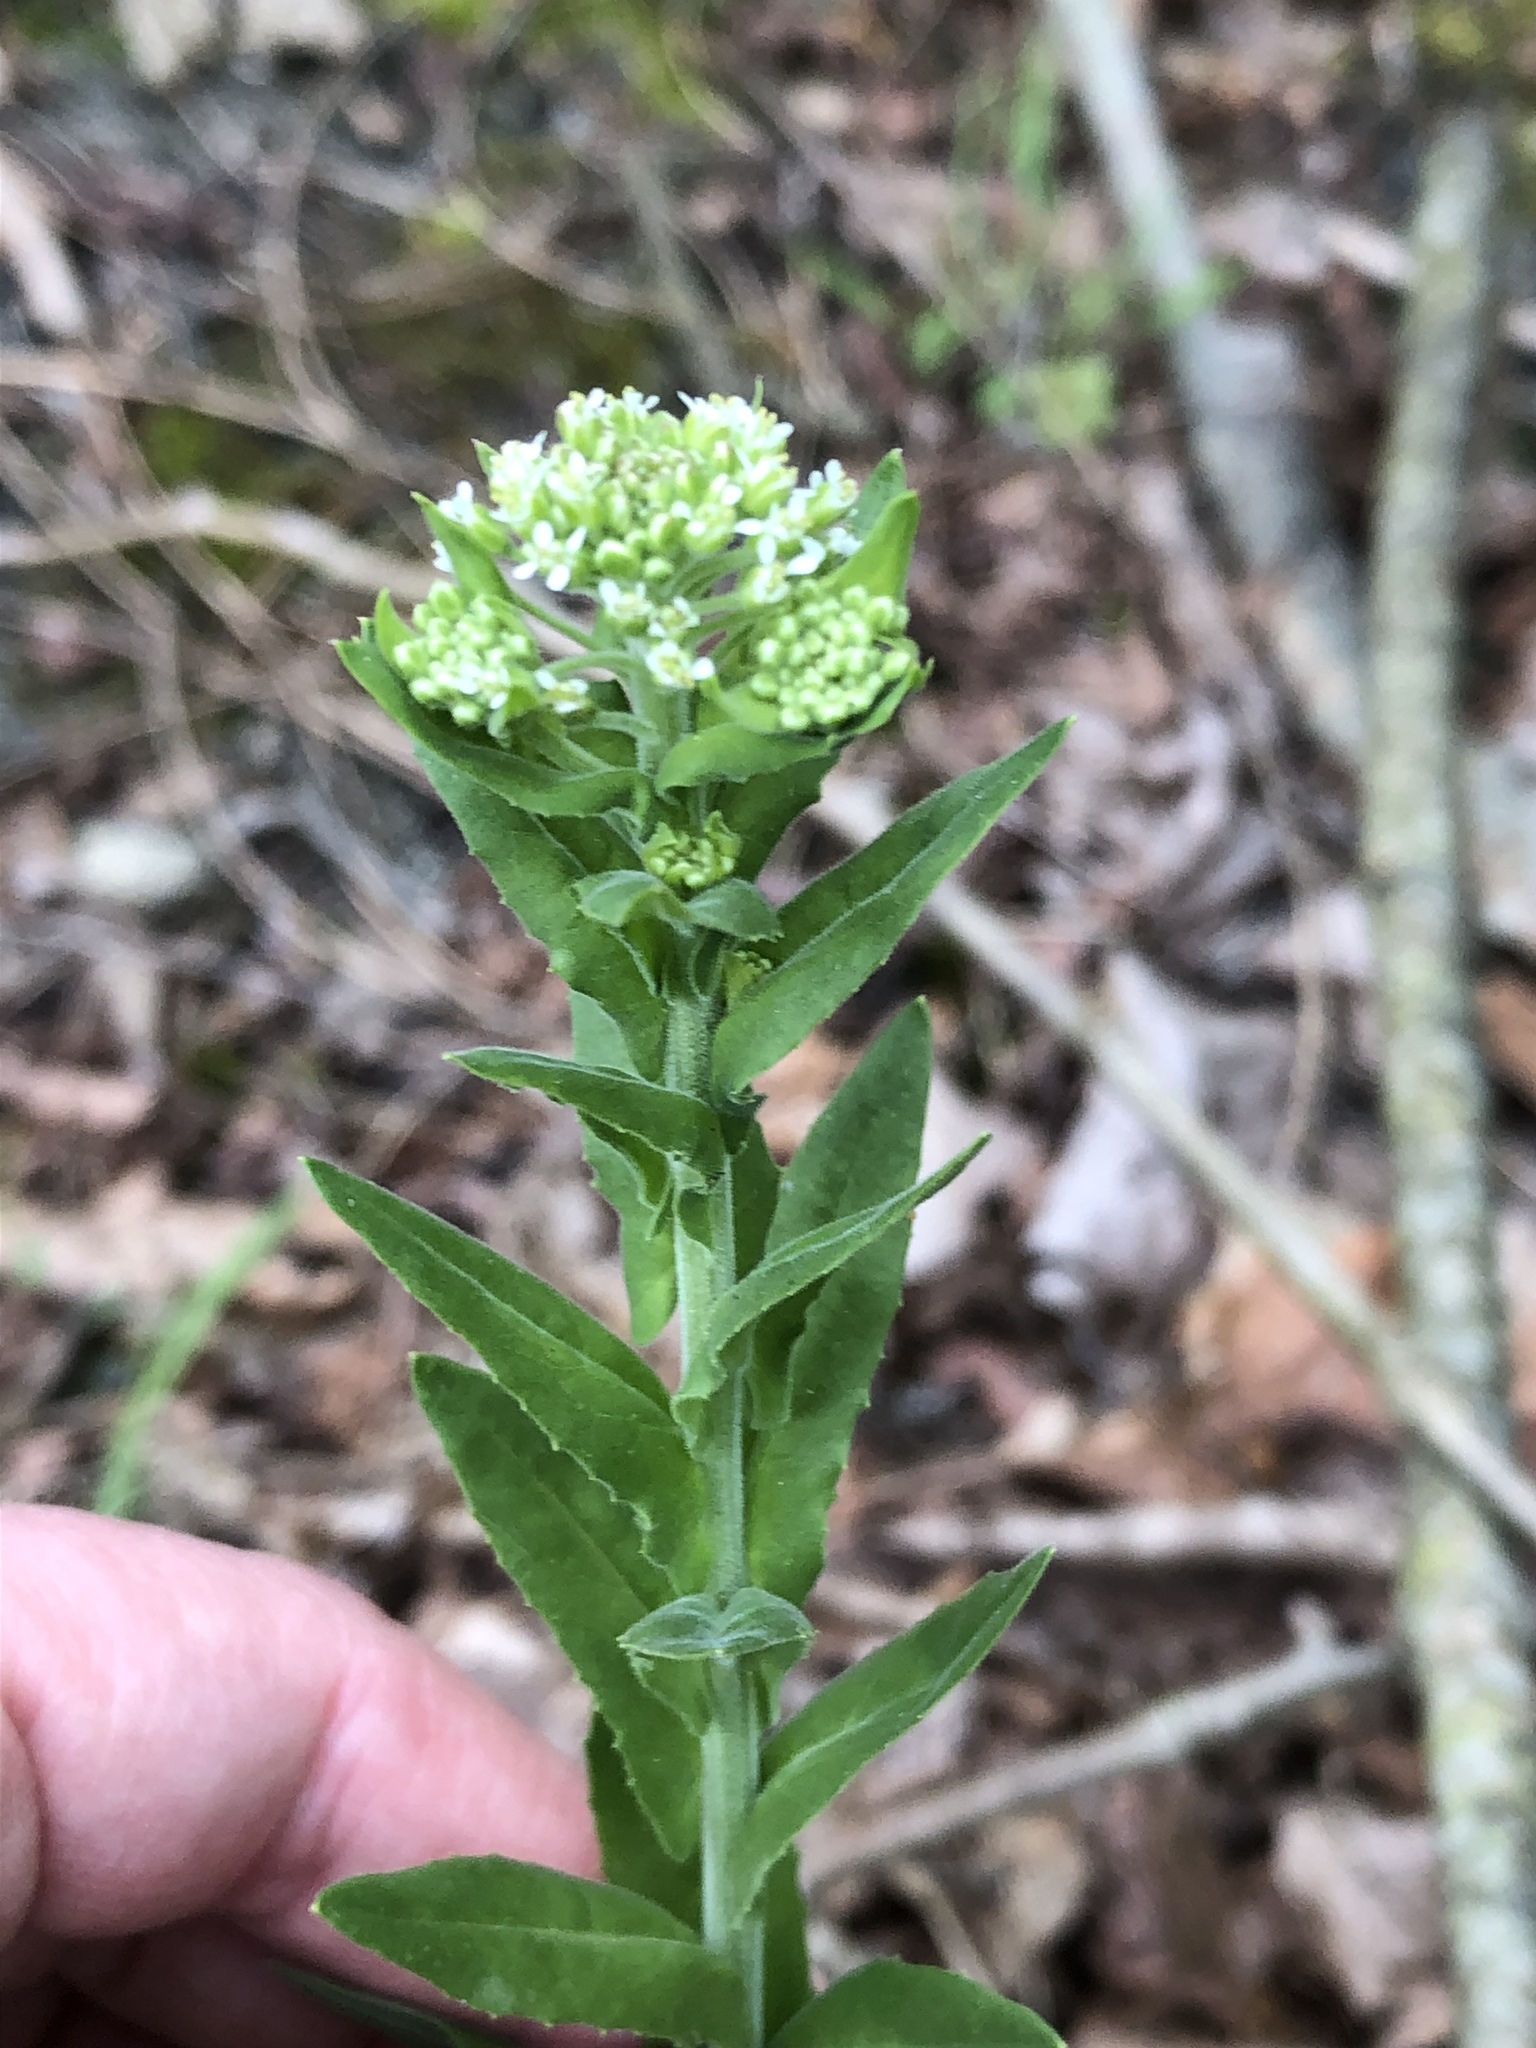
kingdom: Plantae
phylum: Tracheophyta
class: Magnoliopsida
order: Brassicales
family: Brassicaceae
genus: Lepidium
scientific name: Lepidium campestre
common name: Field pepperwort
